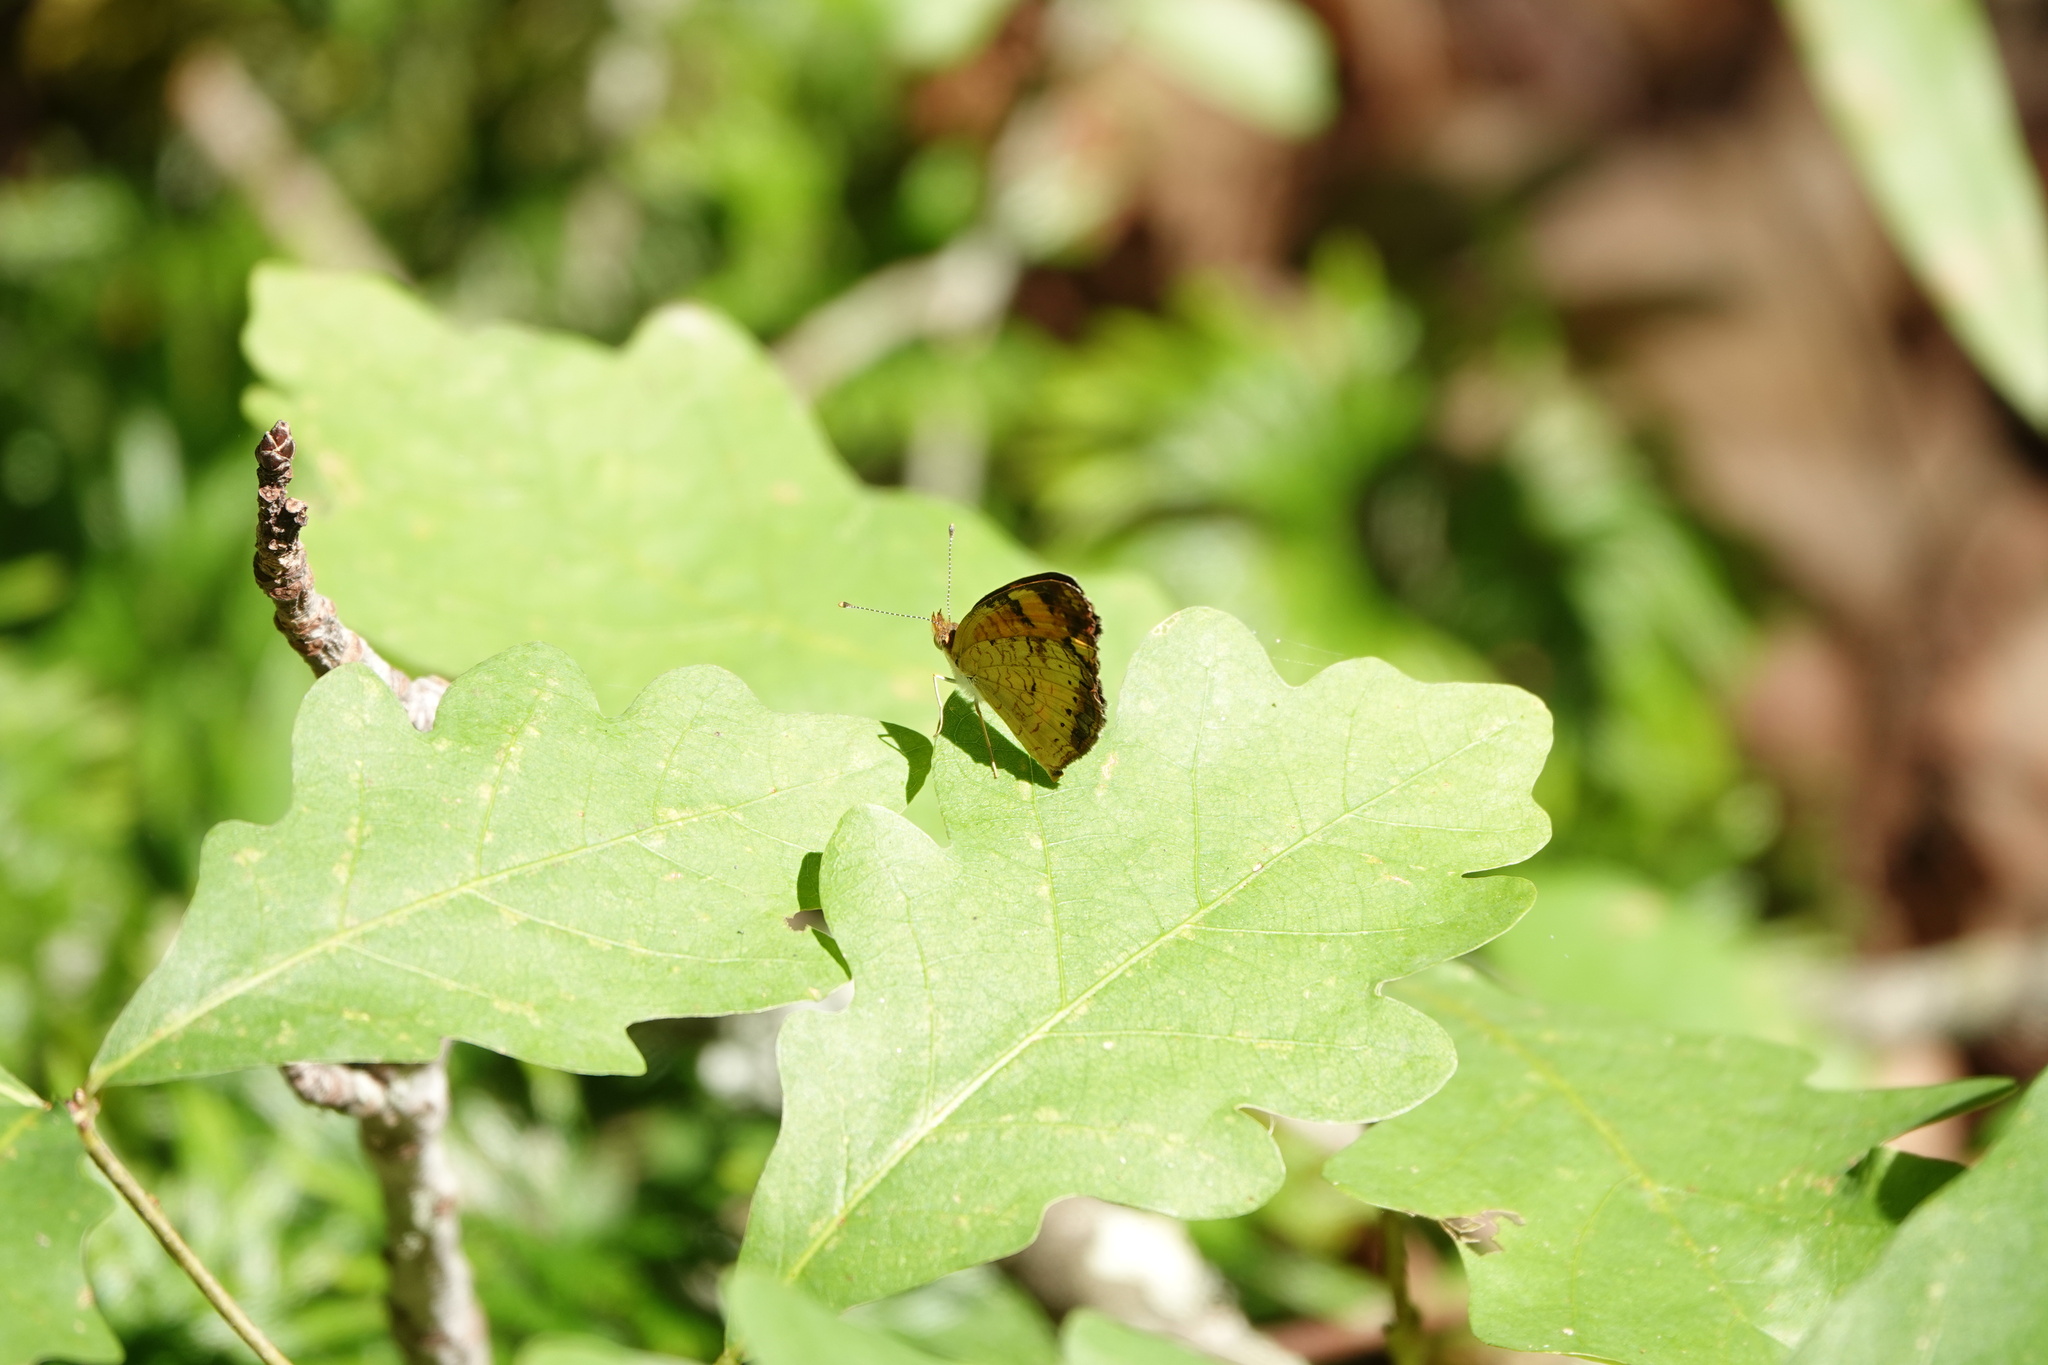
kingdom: Animalia
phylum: Arthropoda
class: Insecta
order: Lepidoptera
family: Nymphalidae
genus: Phyciodes
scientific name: Phyciodes tharos
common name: Pearl crescent
